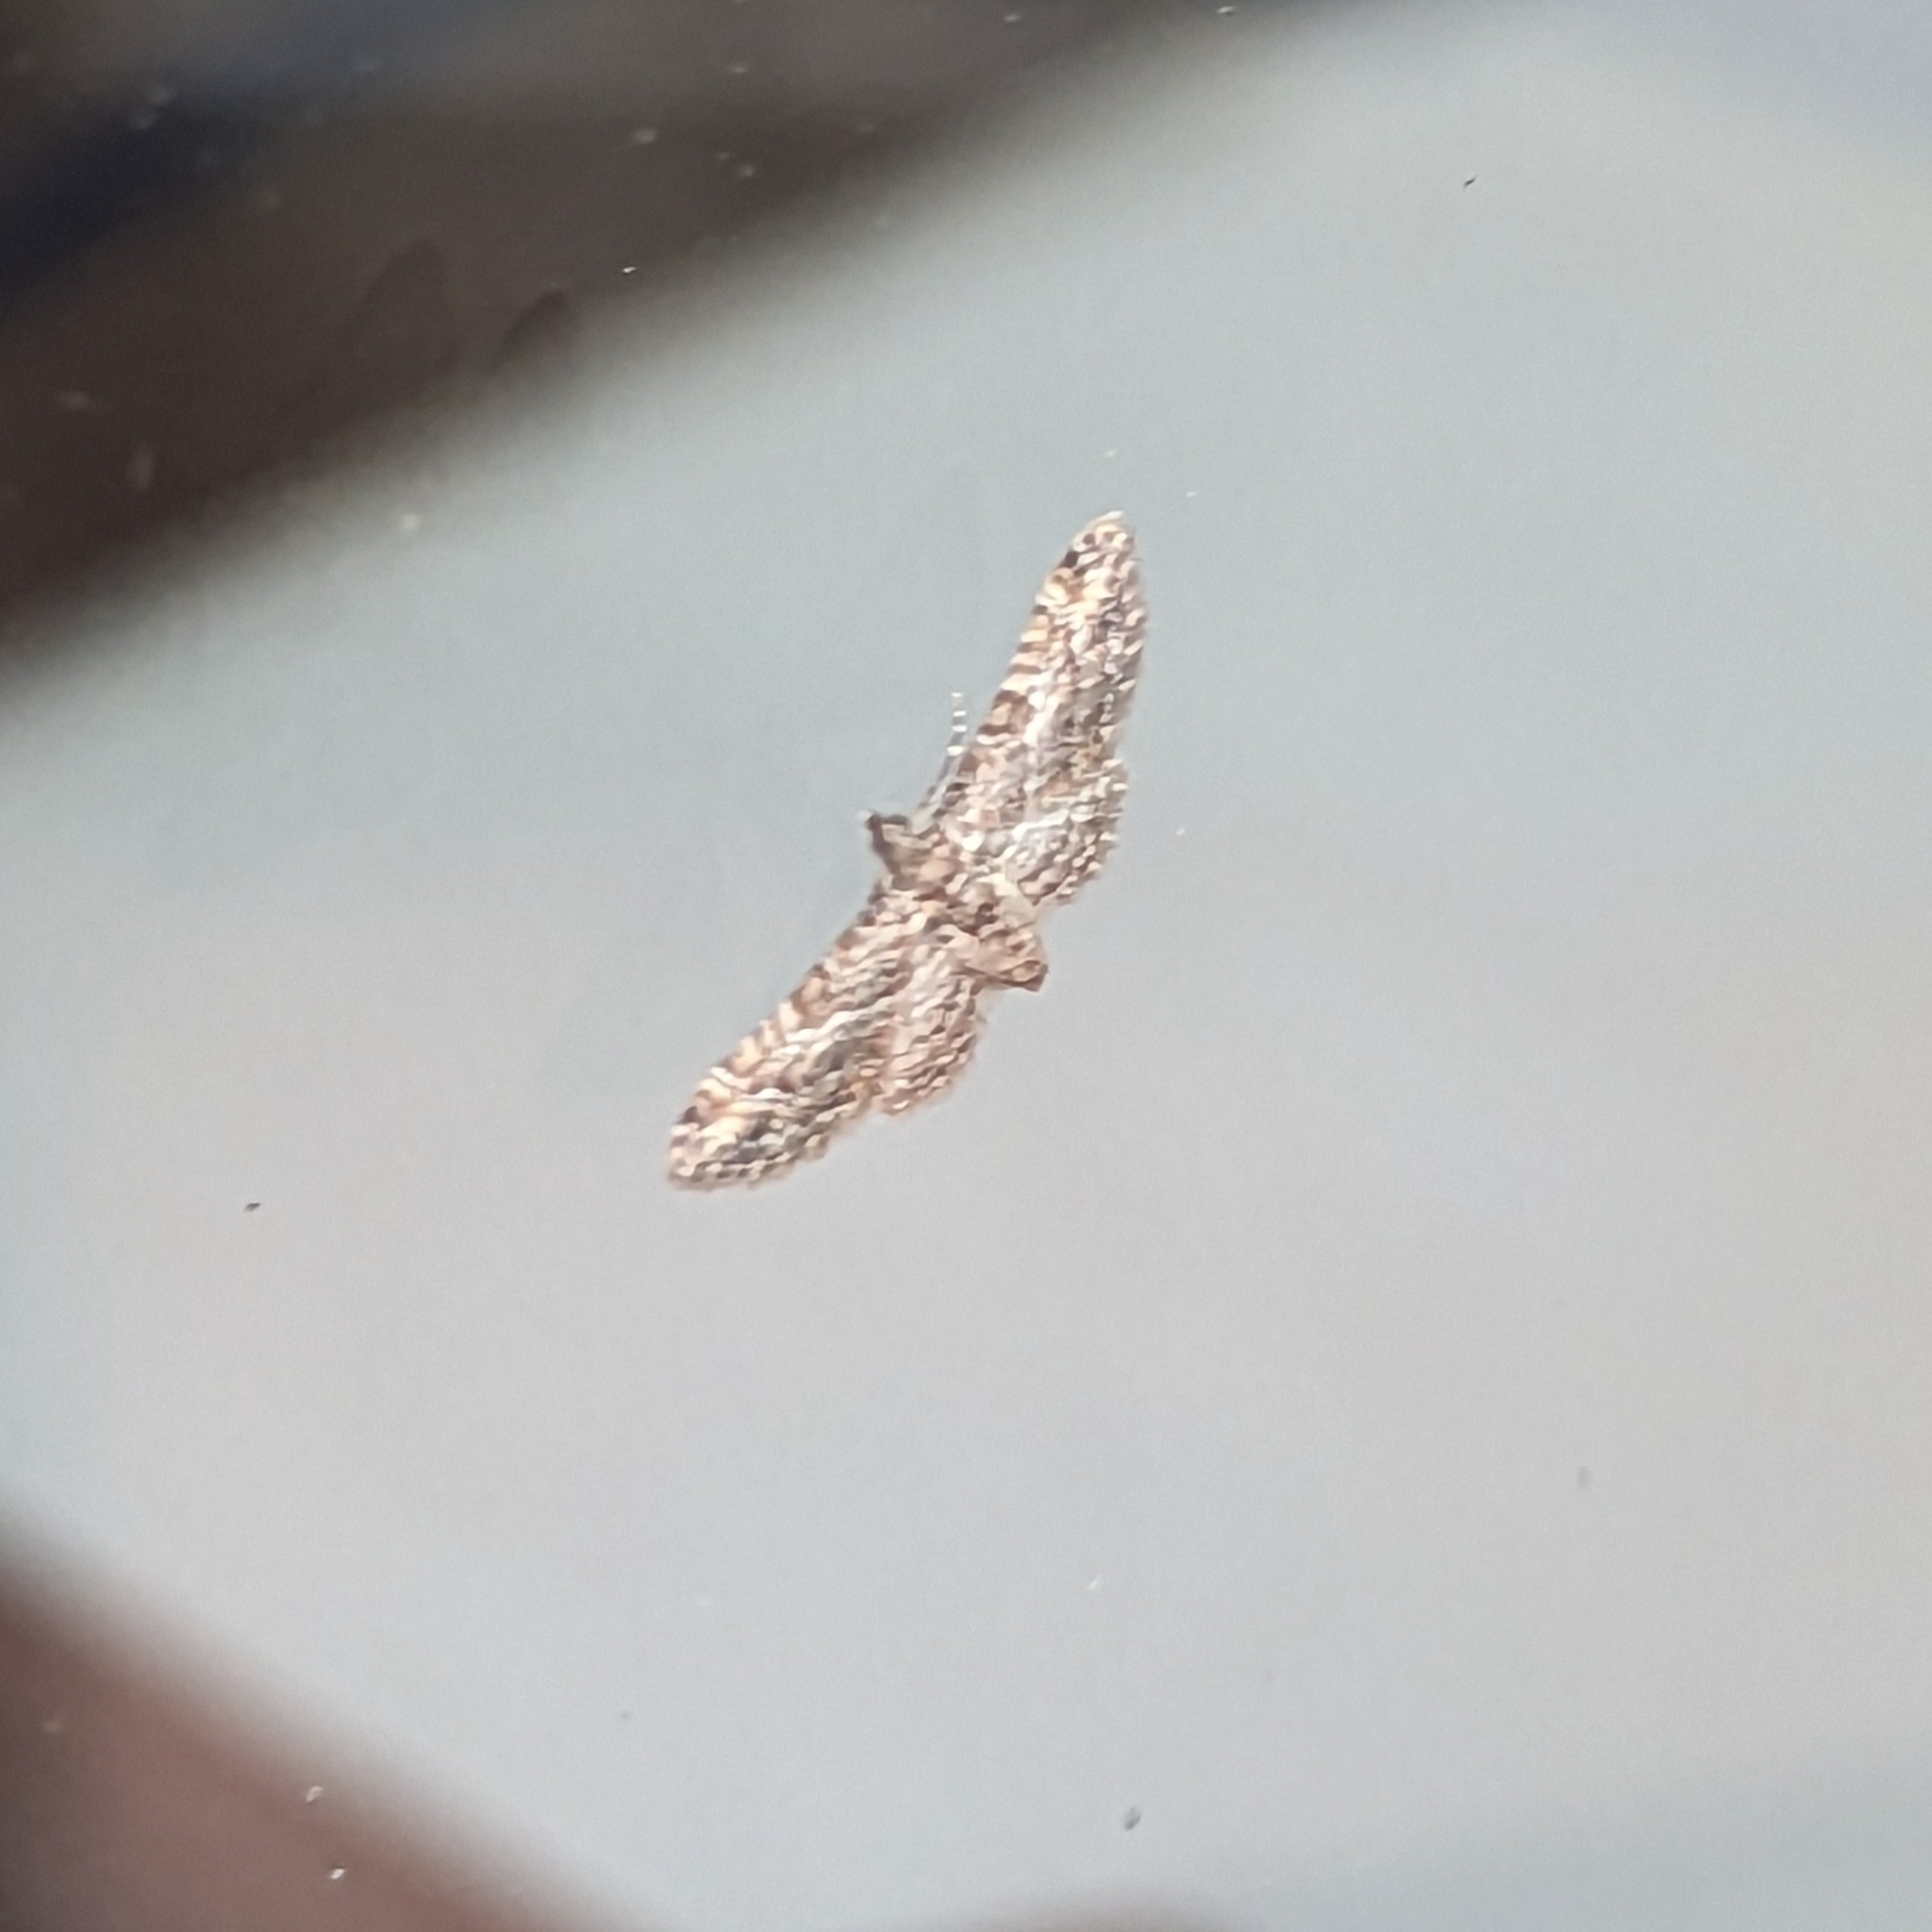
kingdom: Animalia
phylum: Arthropoda
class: Insecta
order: Lepidoptera
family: Geometridae
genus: Gymnoscelis
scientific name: Gymnoscelis rufifasciata
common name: Double-striped pug
